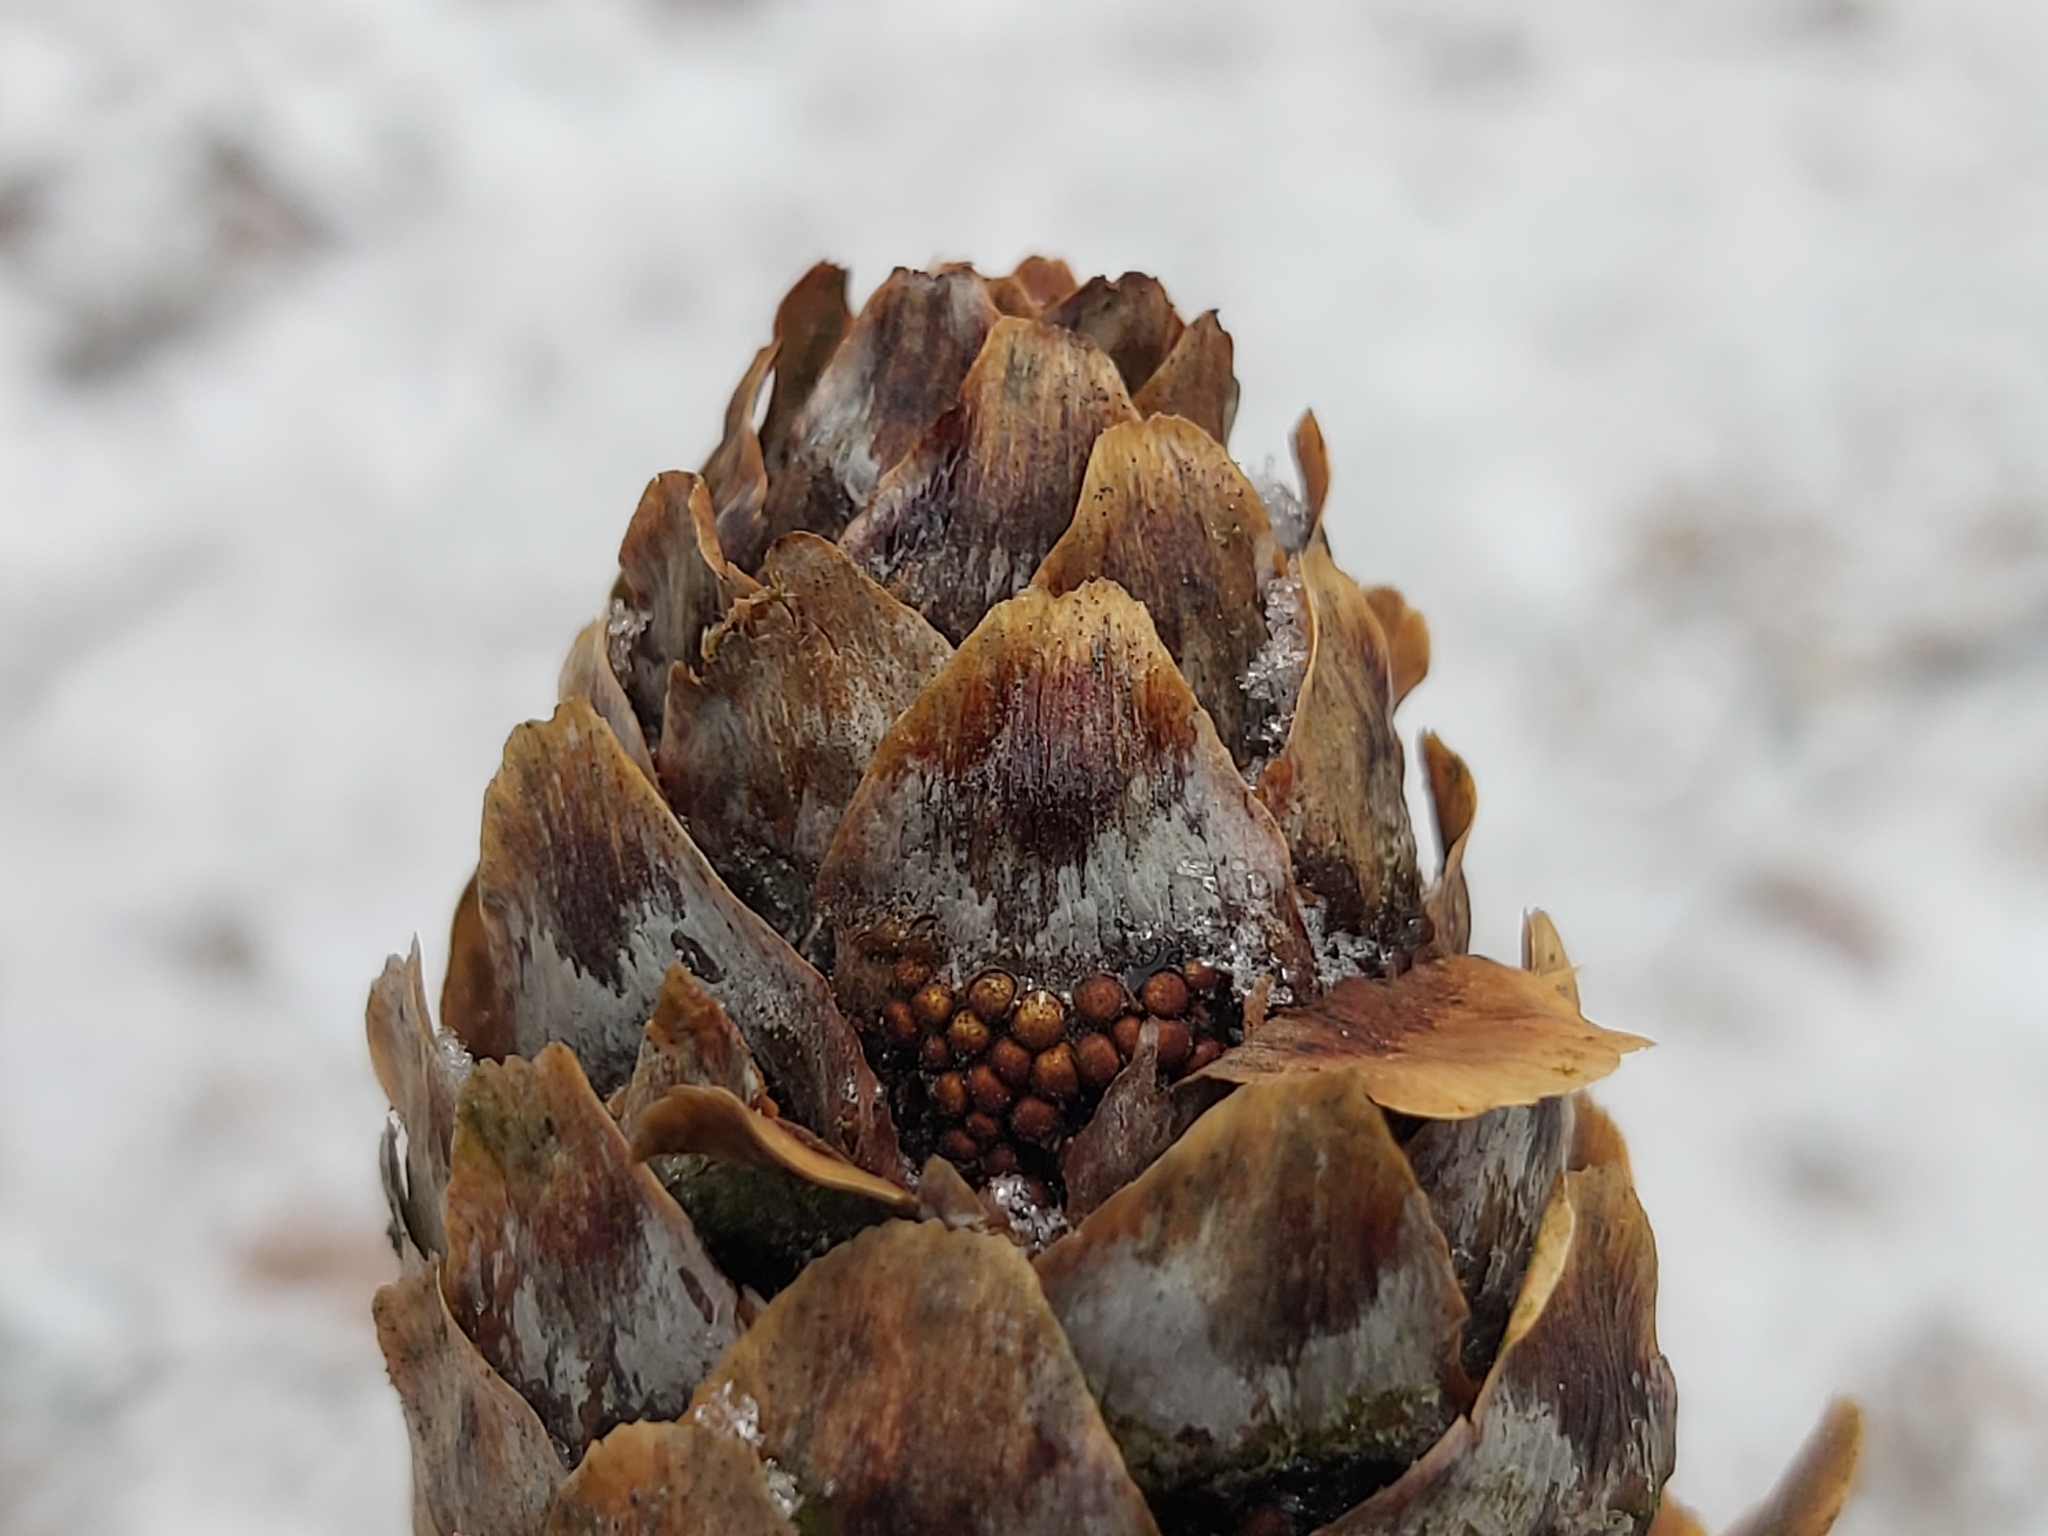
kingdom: Fungi
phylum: Basidiomycota
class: Pucciniomycetes
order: Pucciniales
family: Pucciniastraceae
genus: Thekopsora
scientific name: Thekopsora areolata
